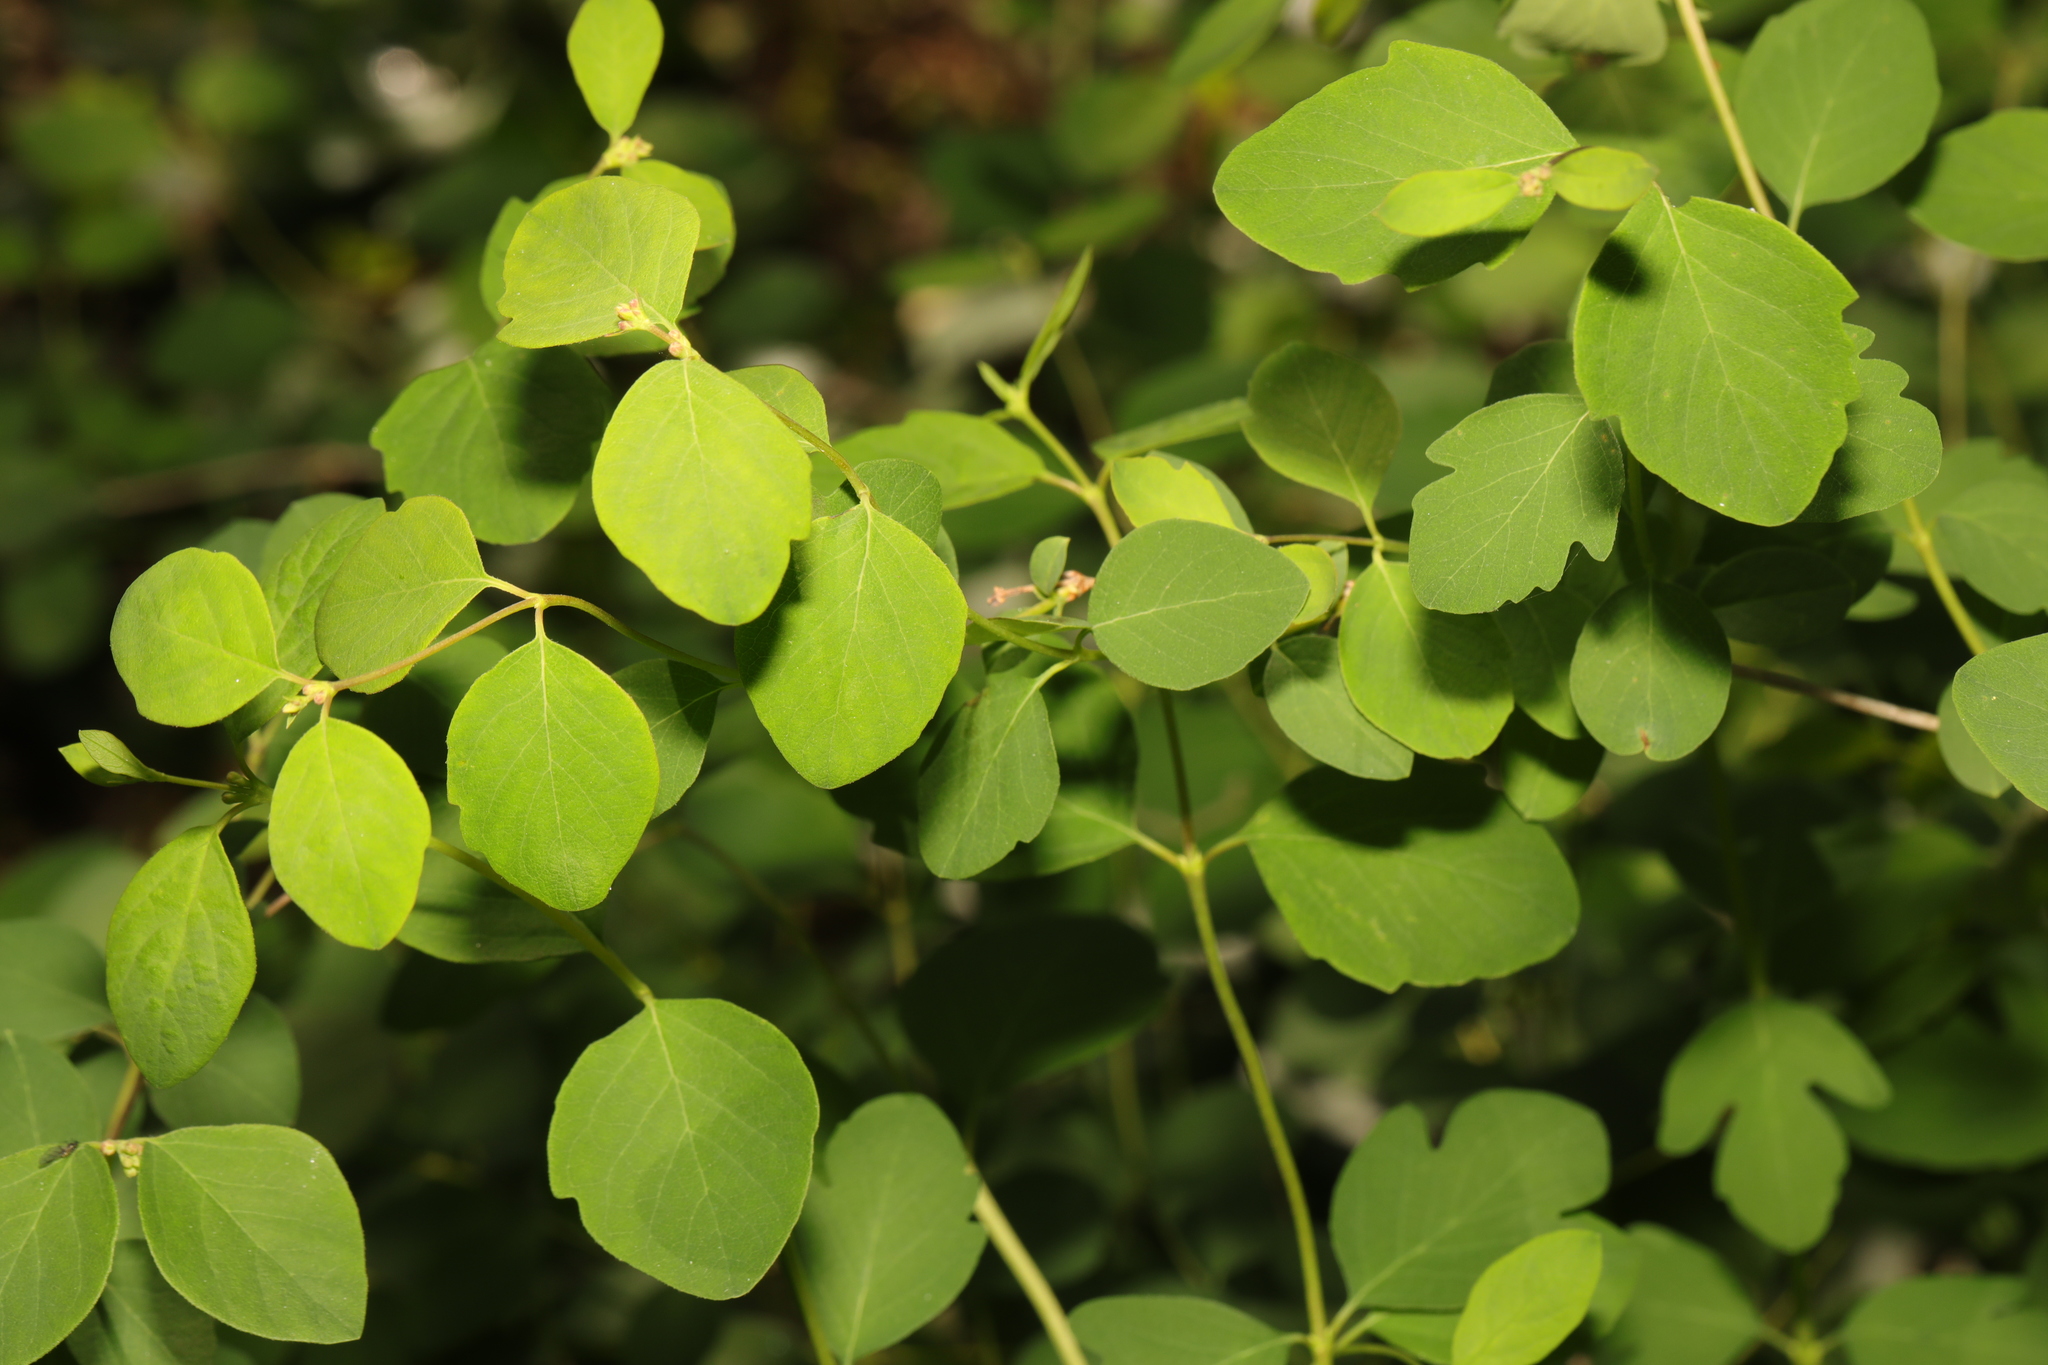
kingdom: Plantae
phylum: Tracheophyta
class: Magnoliopsida
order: Dipsacales
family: Caprifoliaceae
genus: Symphoricarpos
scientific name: Symphoricarpos albus
